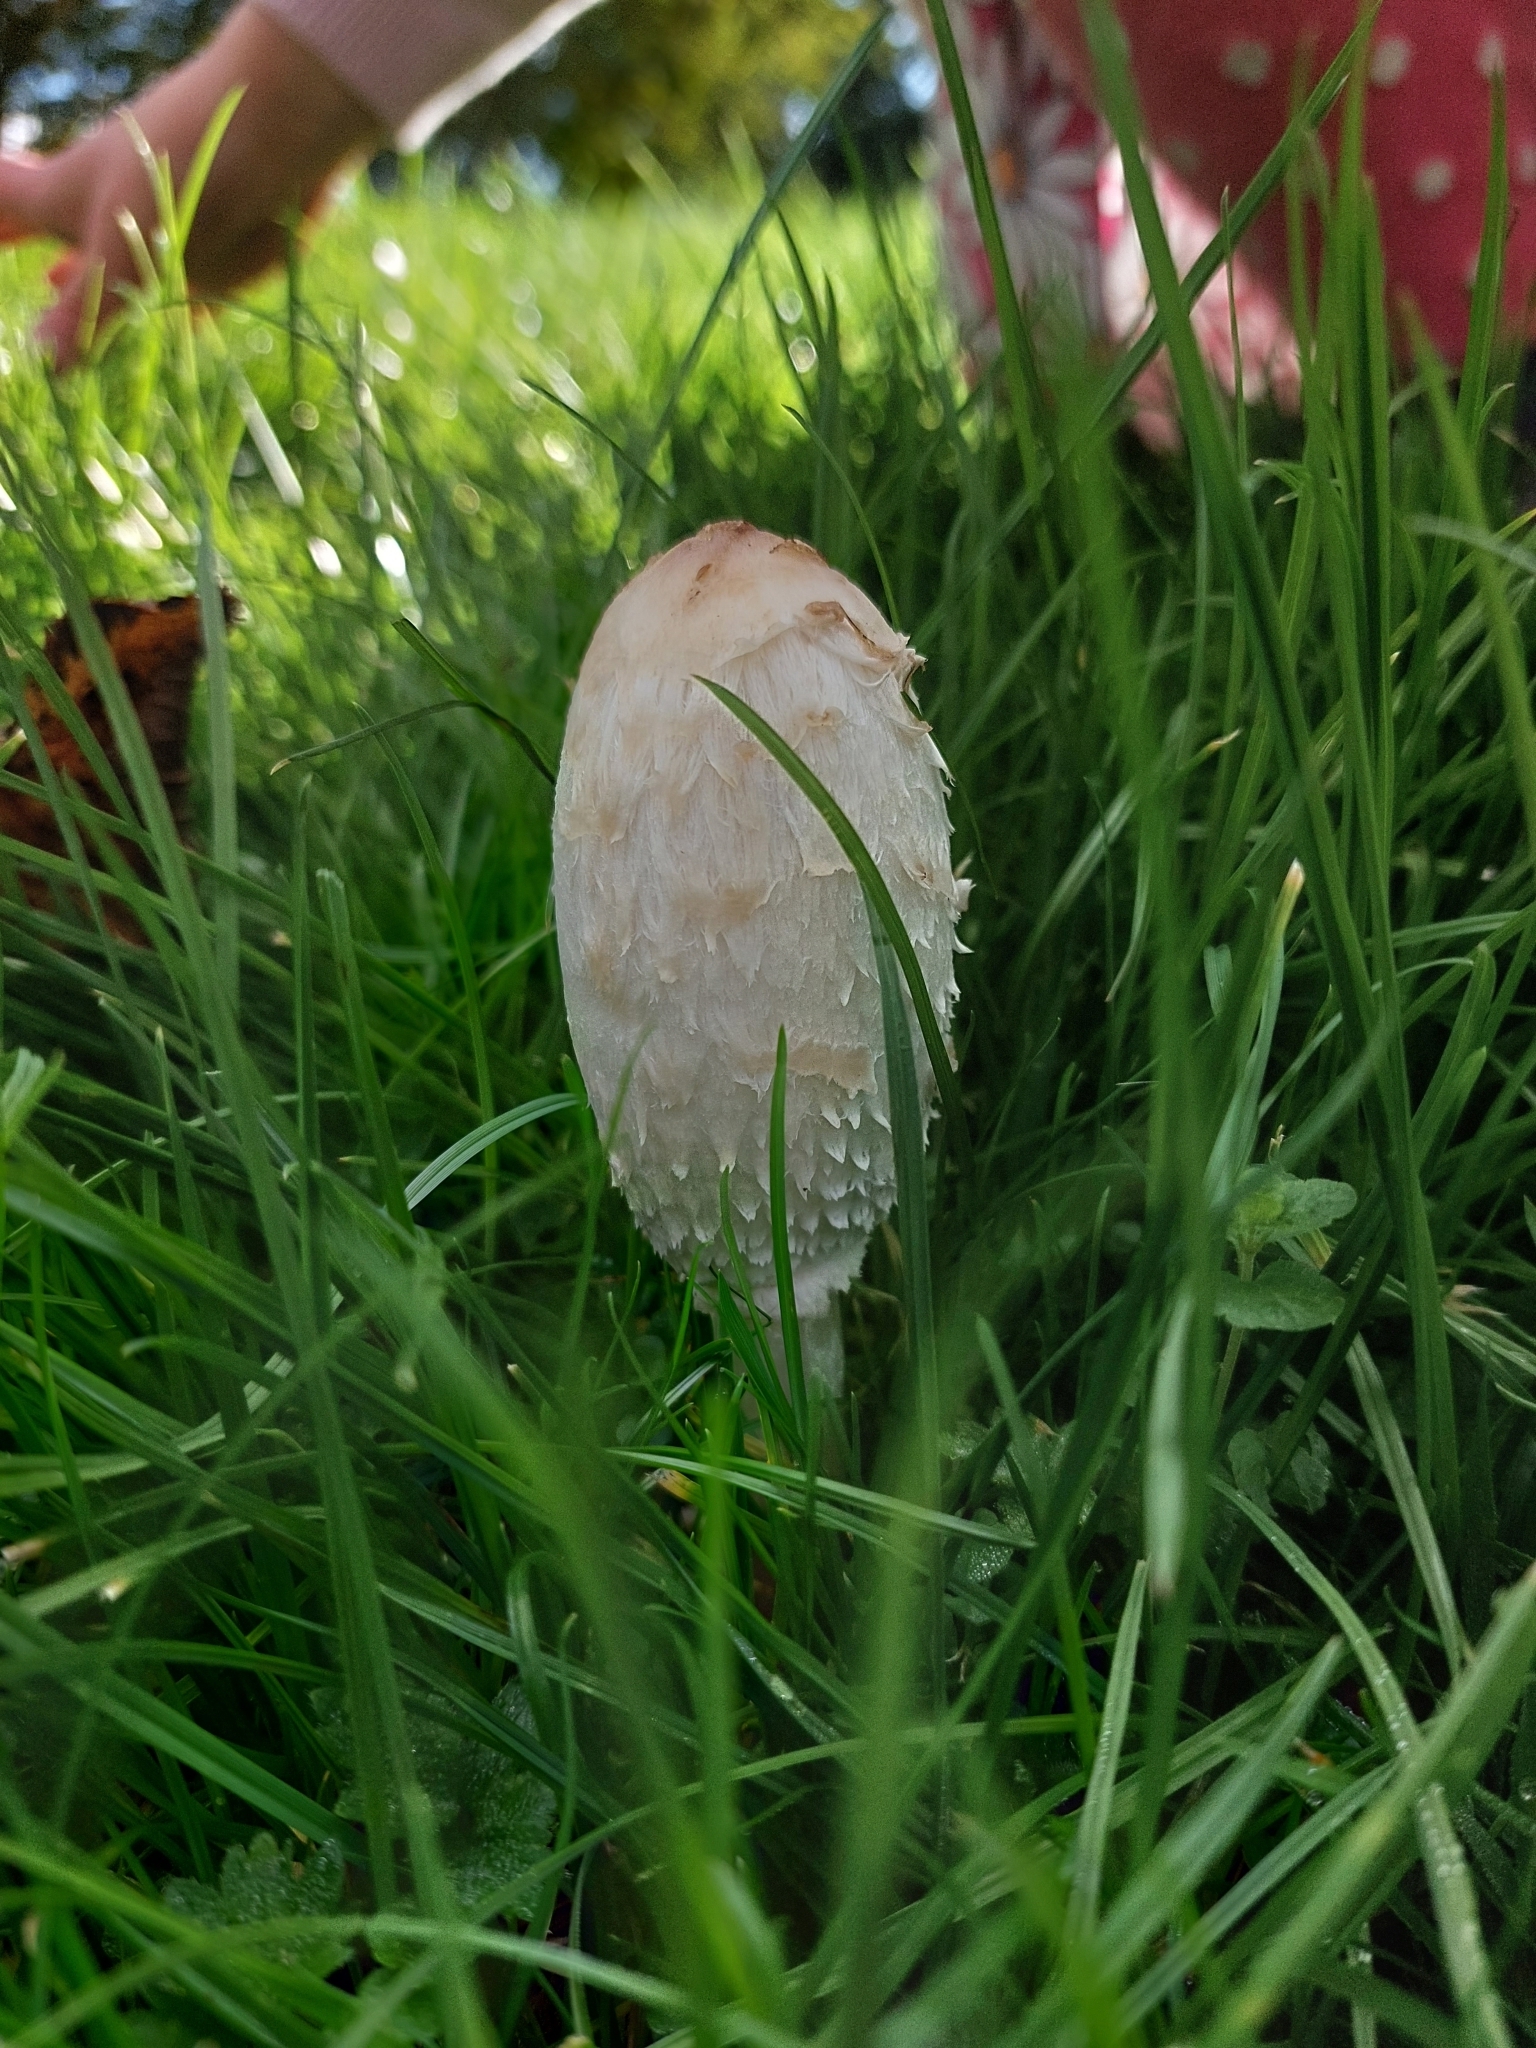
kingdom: Fungi
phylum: Basidiomycota
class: Agaricomycetes
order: Agaricales
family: Agaricaceae
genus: Coprinus
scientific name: Coprinus comatus
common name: Lawyer's wig
